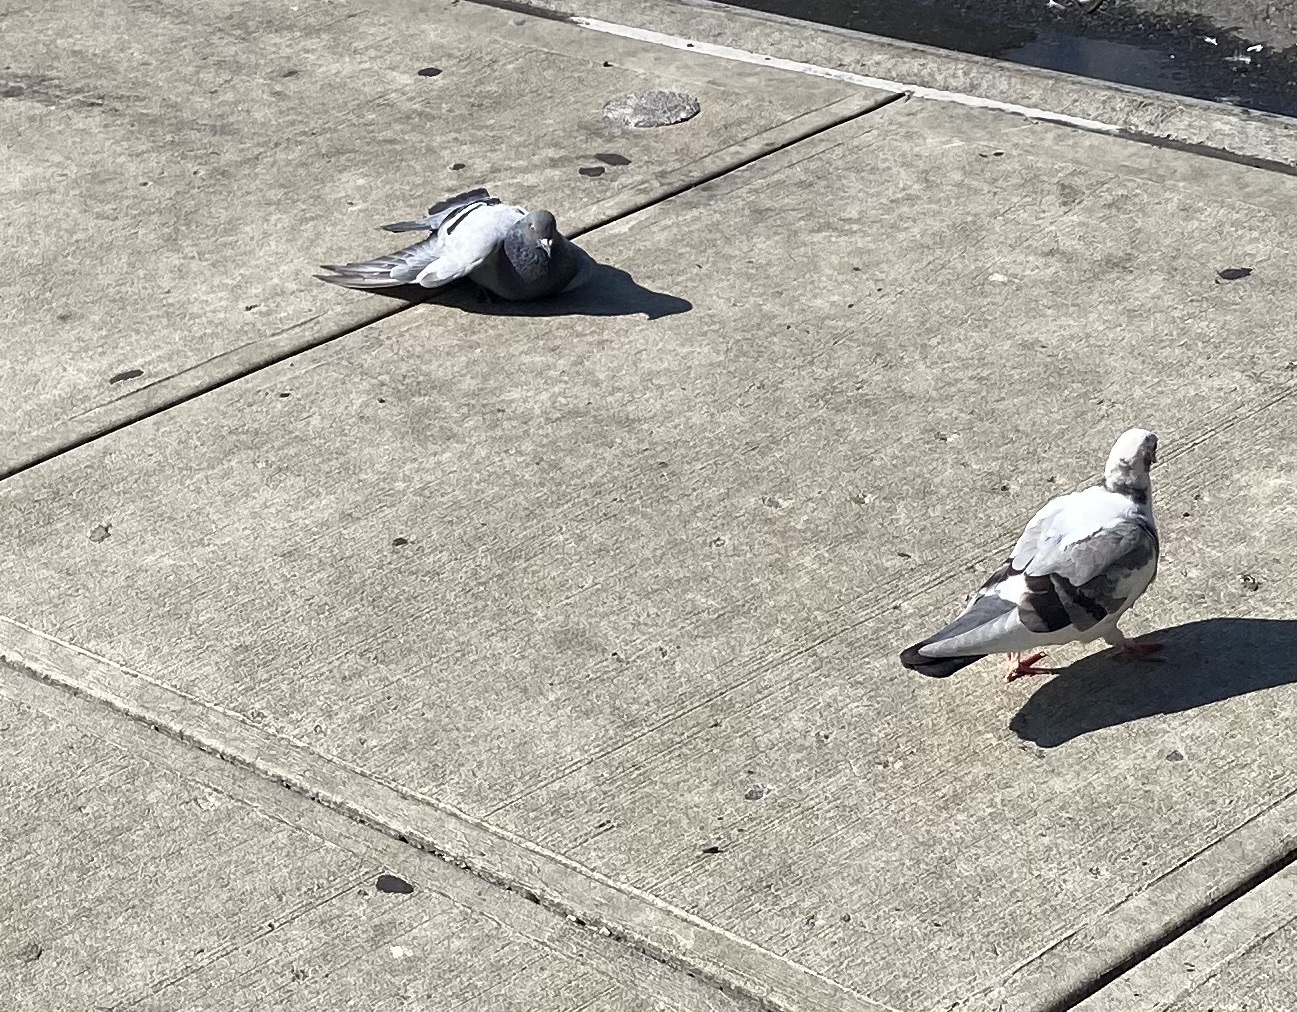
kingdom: Animalia
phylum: Chordata
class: Aves
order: Columbiformes
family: Columbidae
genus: Columba
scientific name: Columba livia
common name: Rock pigeon
